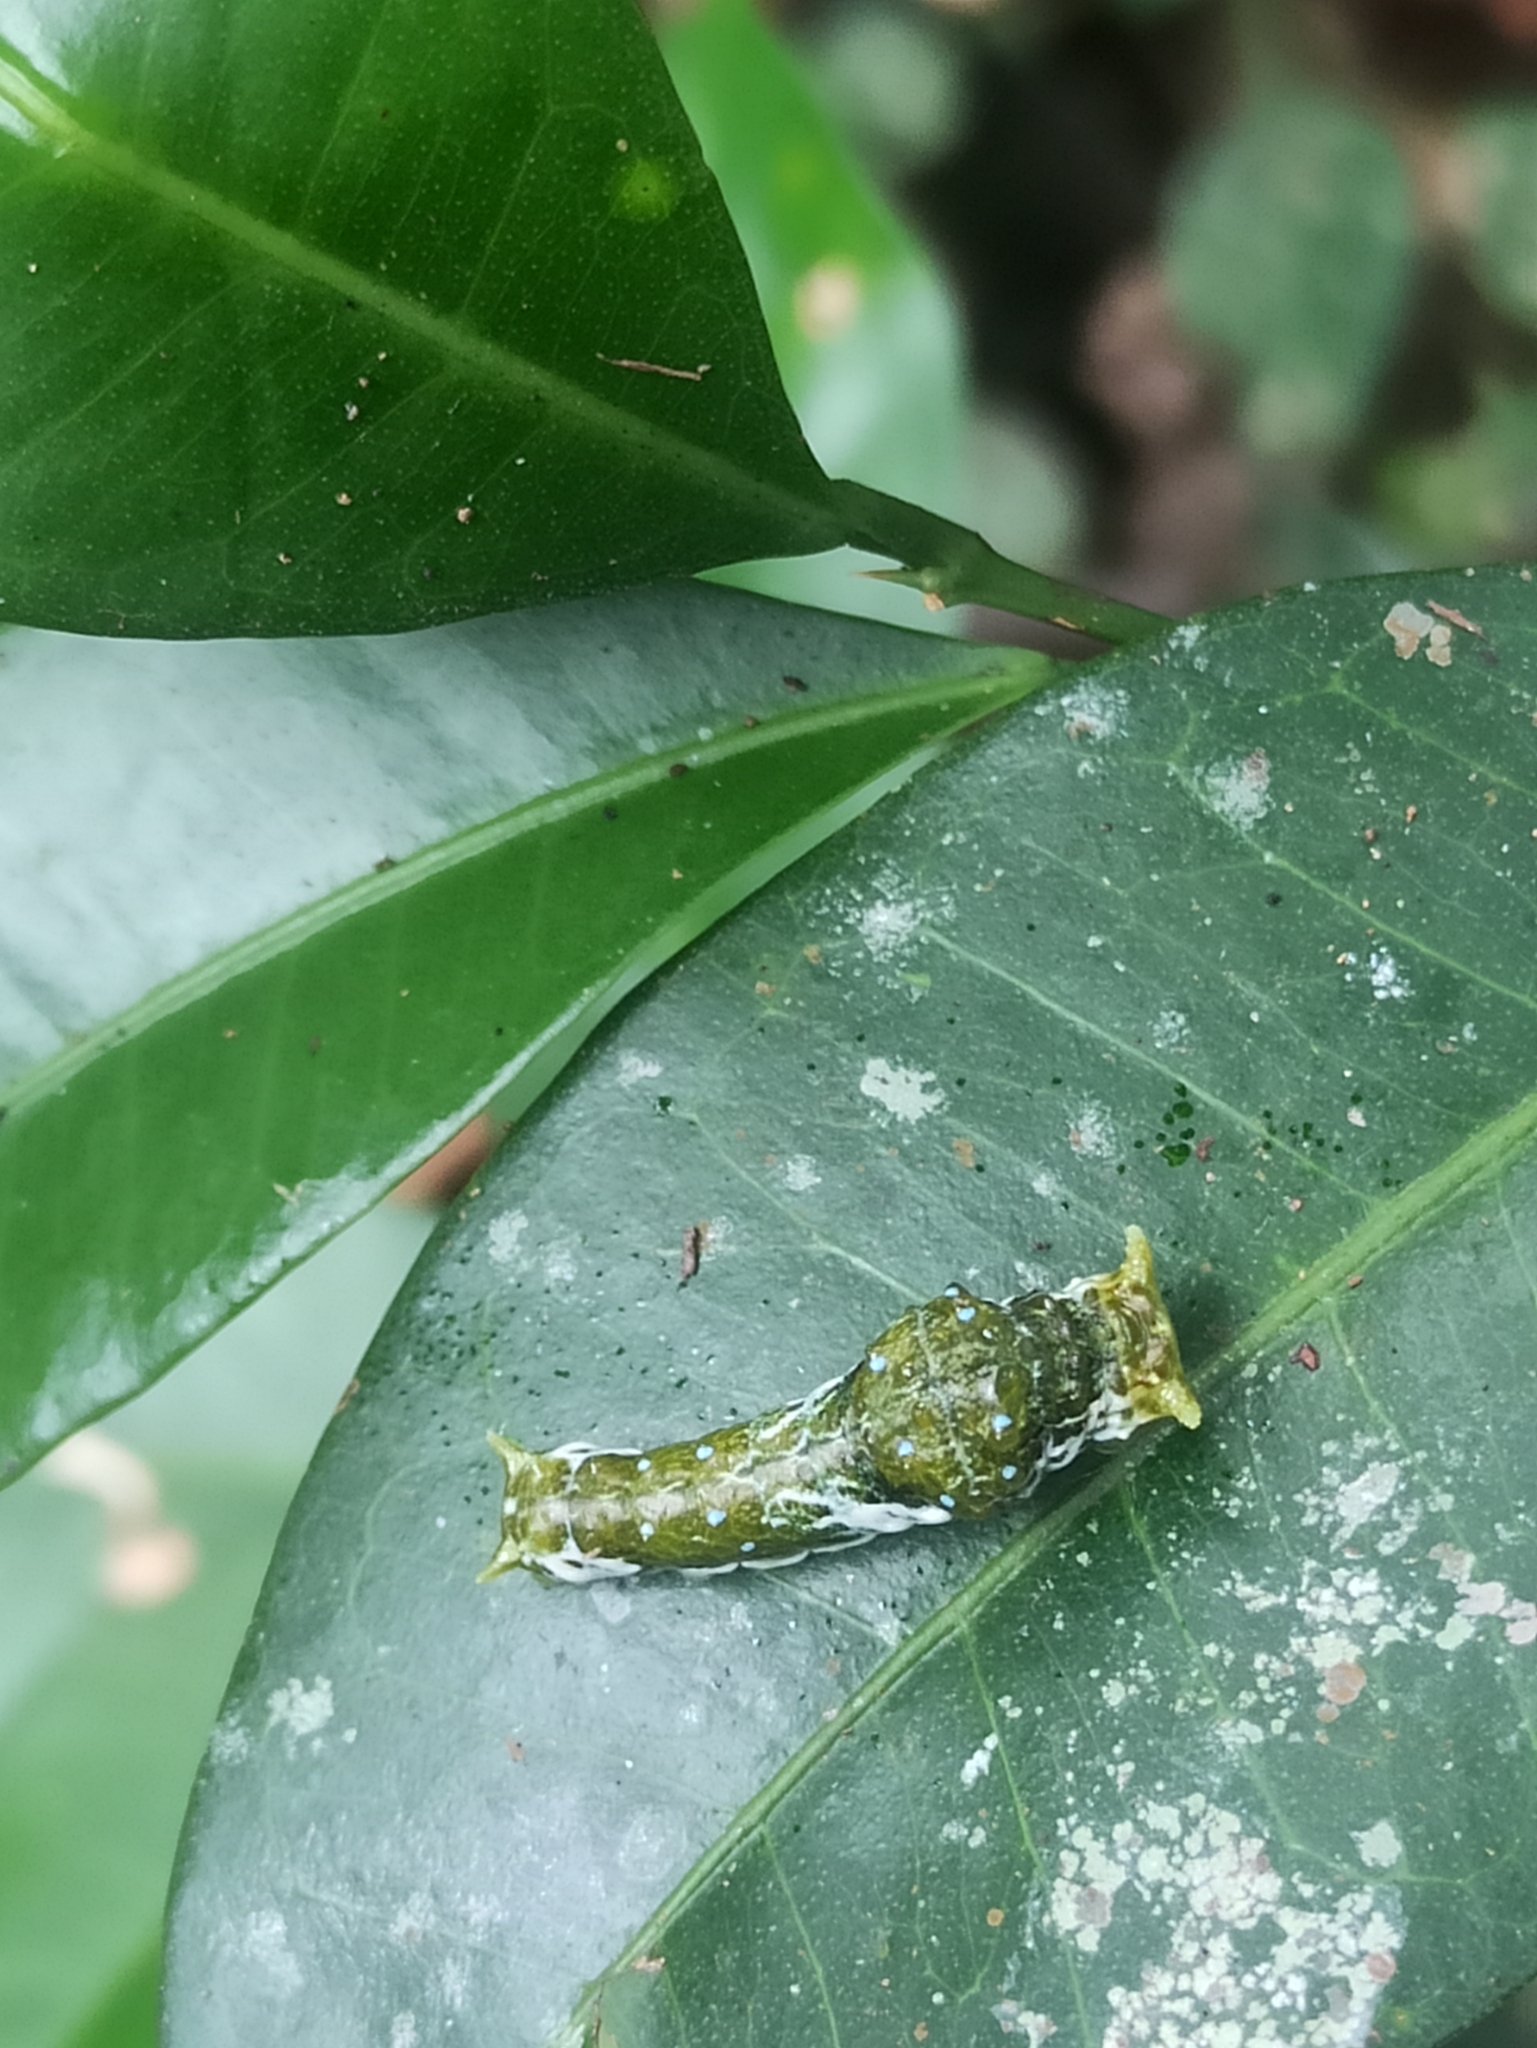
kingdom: Animalia
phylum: Arthropoda
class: Insecta
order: Lepidoptera
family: Papilionidae
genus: Papilio
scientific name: Papilio memnon
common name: Great mormon
